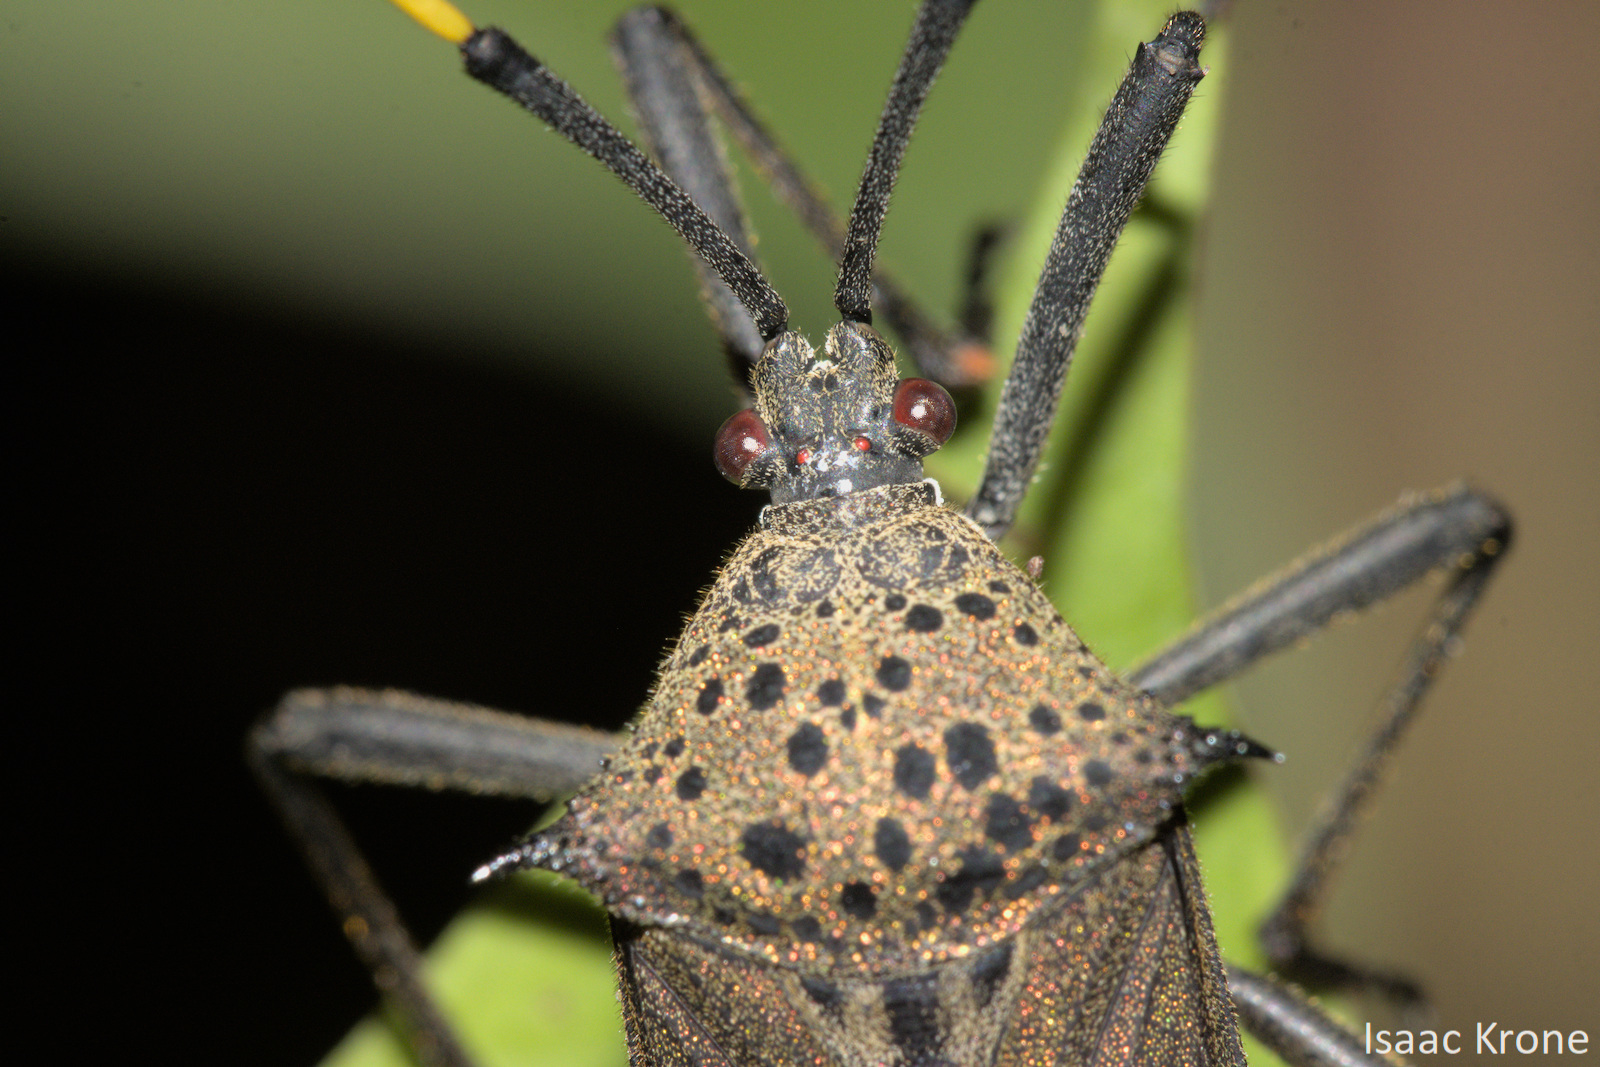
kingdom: Animalia
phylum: Arthropoda
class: Insecta
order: Hemiptera
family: Coreidae
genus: Molchina
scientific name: Molchina hopei
